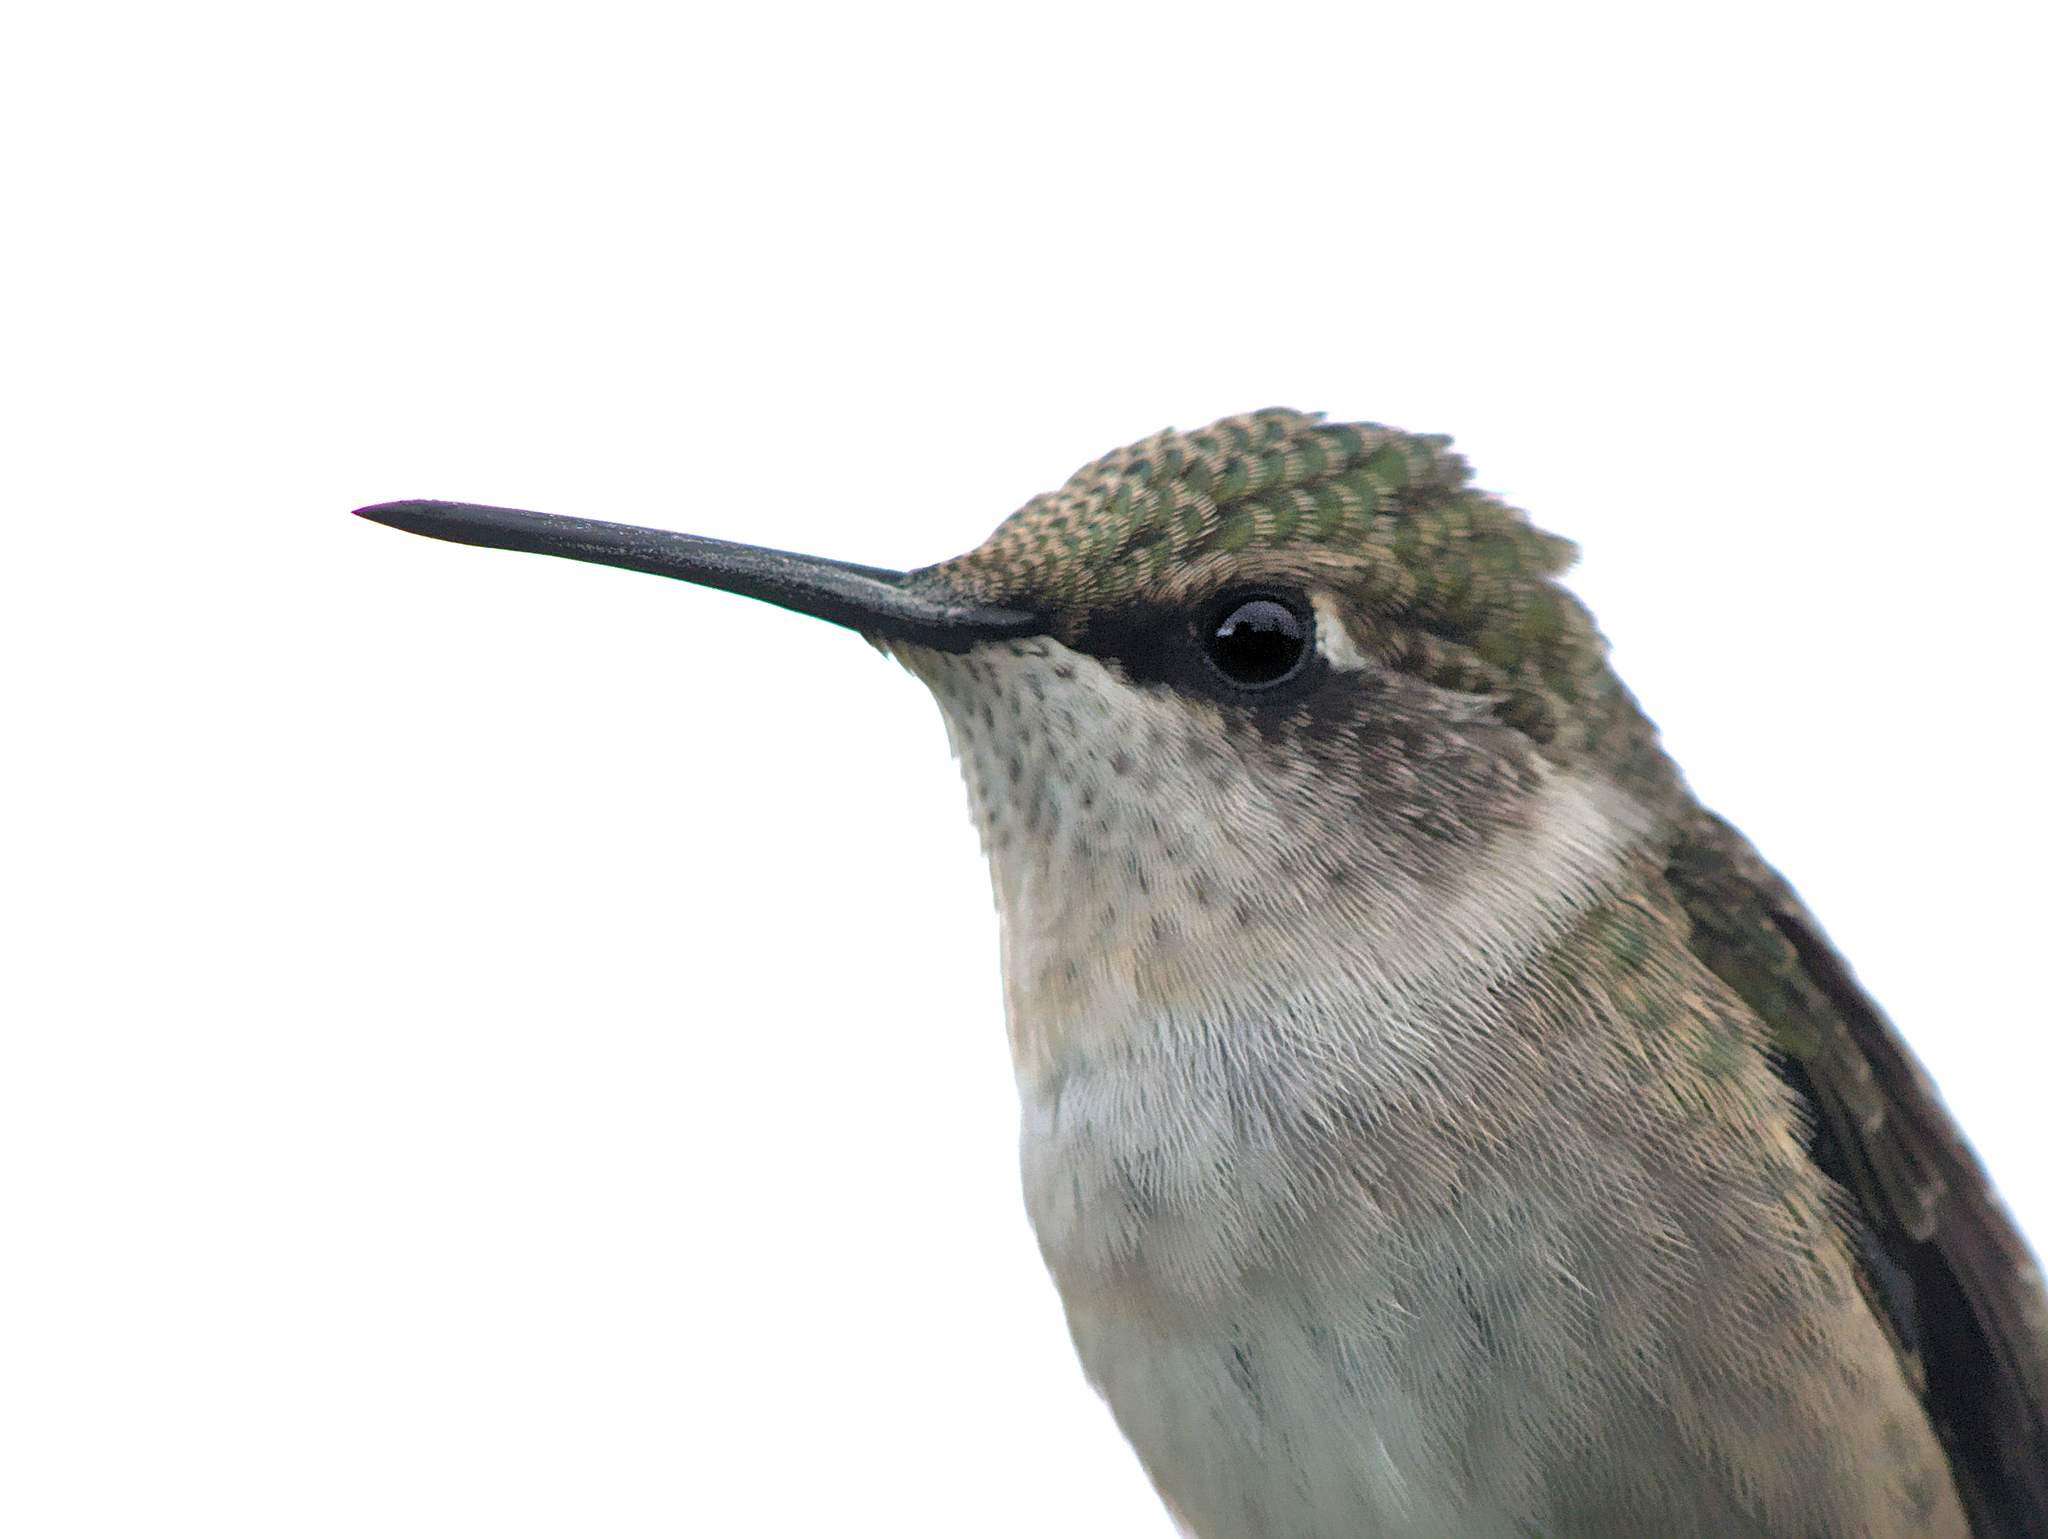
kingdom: Animalia
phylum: Chordata
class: Aves
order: Apodiformes
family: Trochilidae
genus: Archilochus
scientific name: Archilochus colubris
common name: Ruby-throated hummingbird
